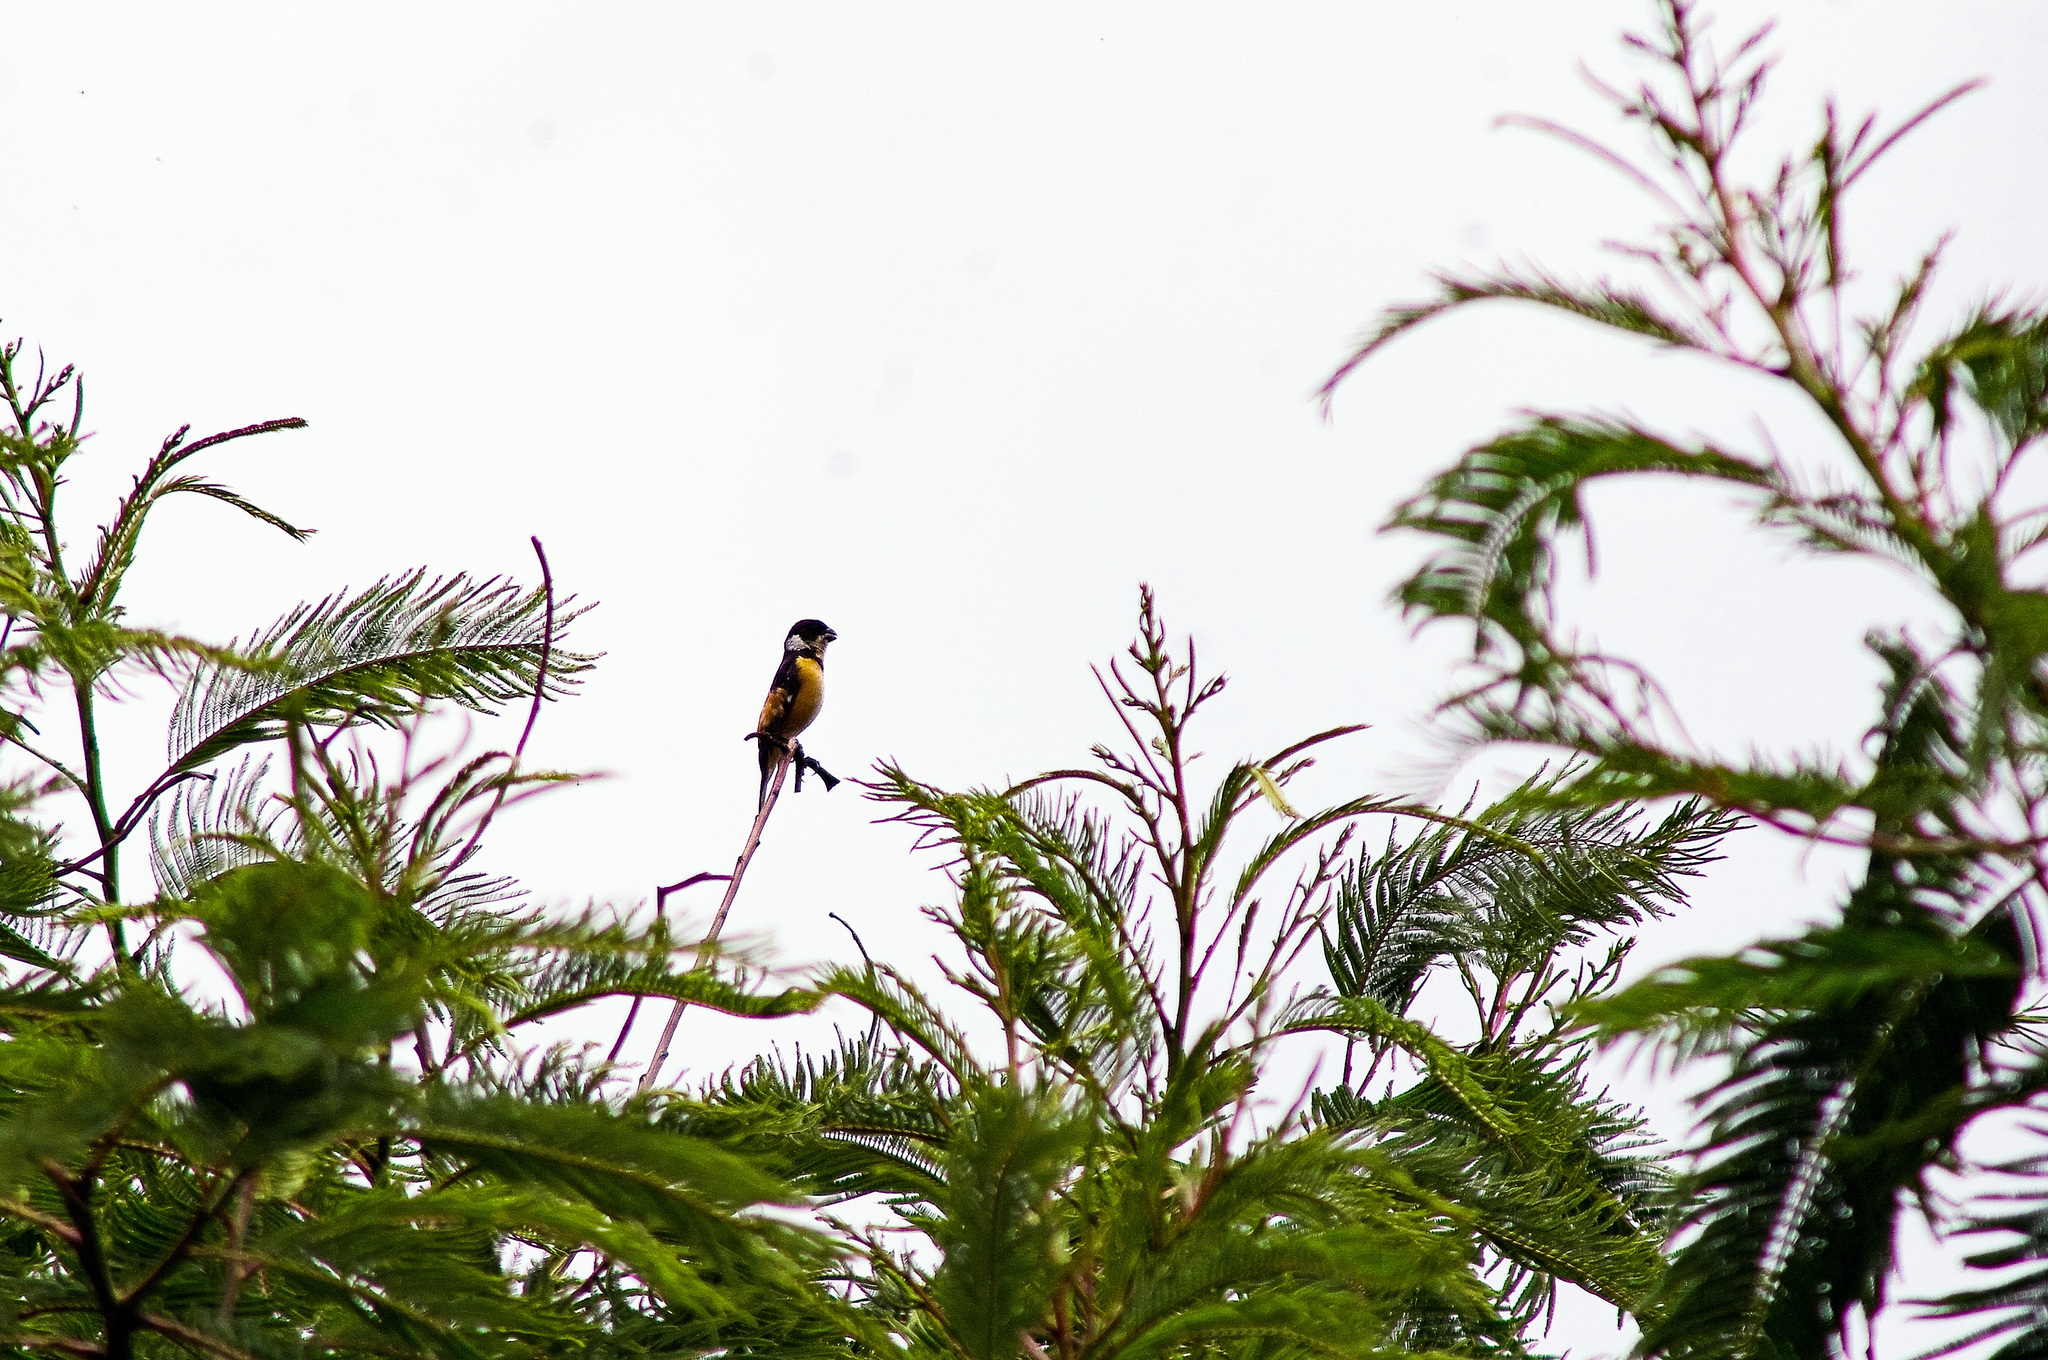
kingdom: Animalia
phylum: Chordata
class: Aves
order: Passeriformes
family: Thraupidae
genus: Sporophila
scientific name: Sporophila torqueola
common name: White-collared seedeater
